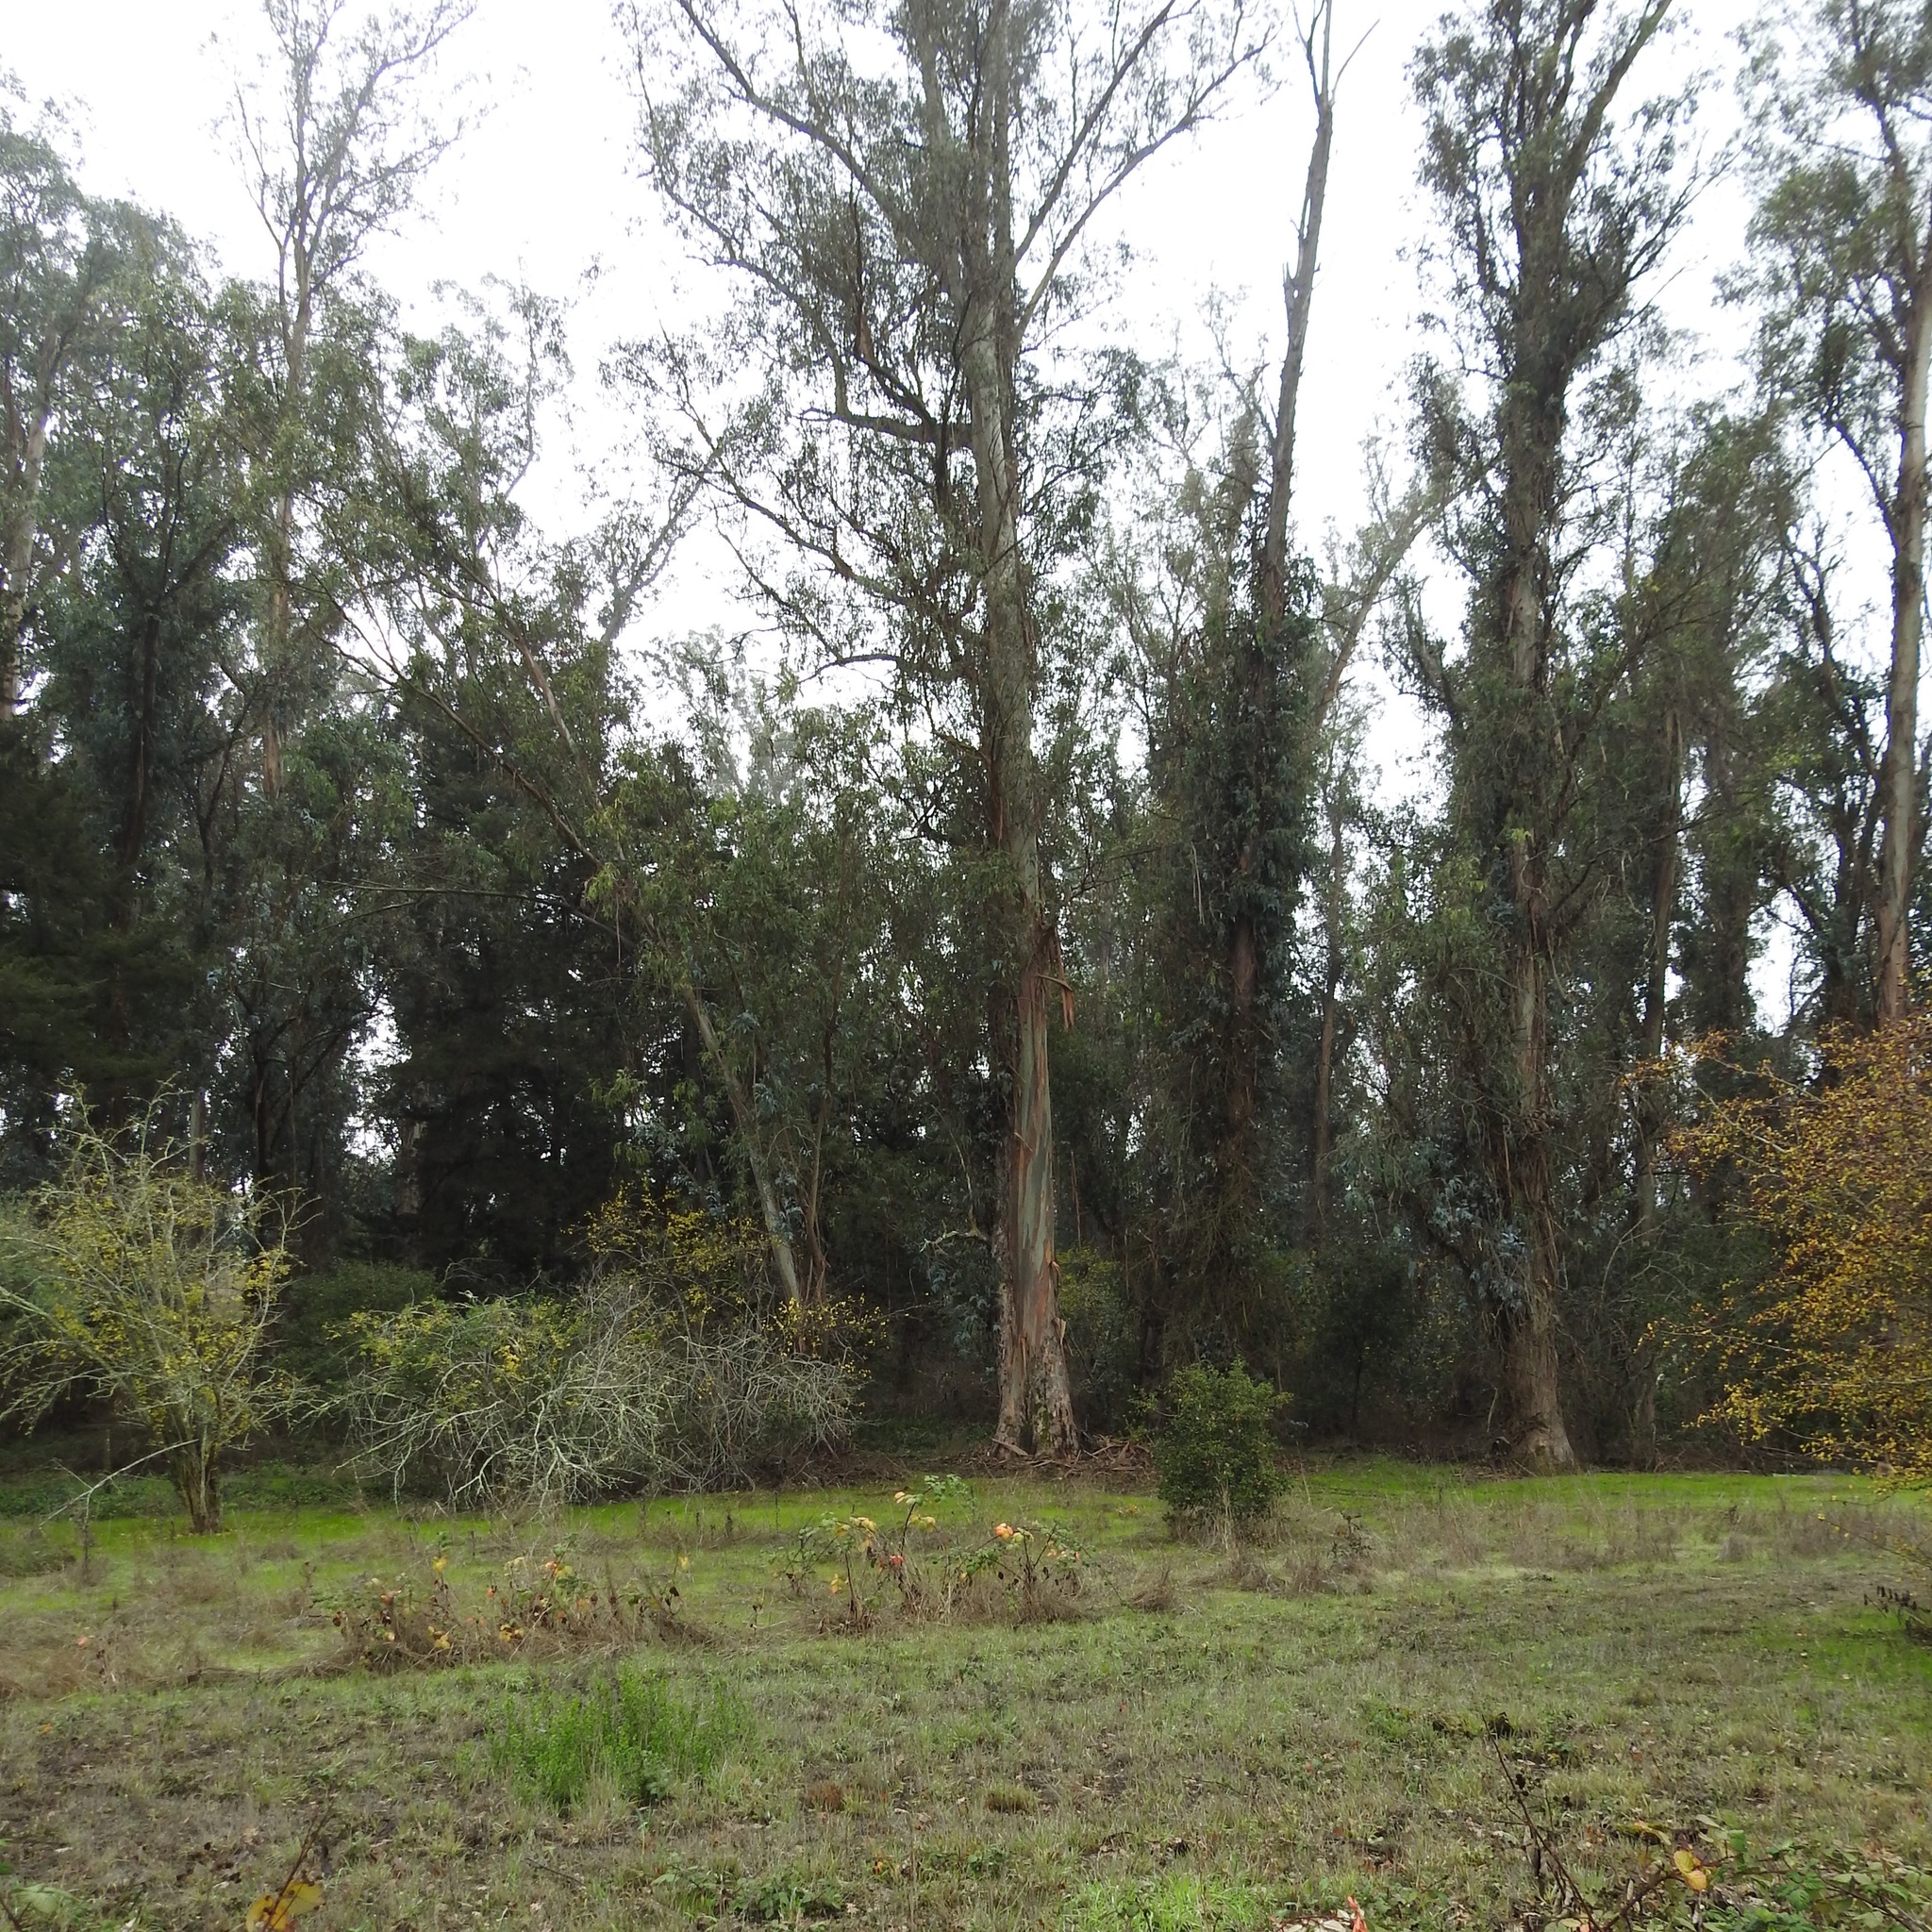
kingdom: Plantae
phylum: Tracheophyta
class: Magnoliopsida
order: Myrtales
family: Myrtaceae
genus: Eucalyptus
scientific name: Eucalyptus globulus
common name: Southern blue-gum
